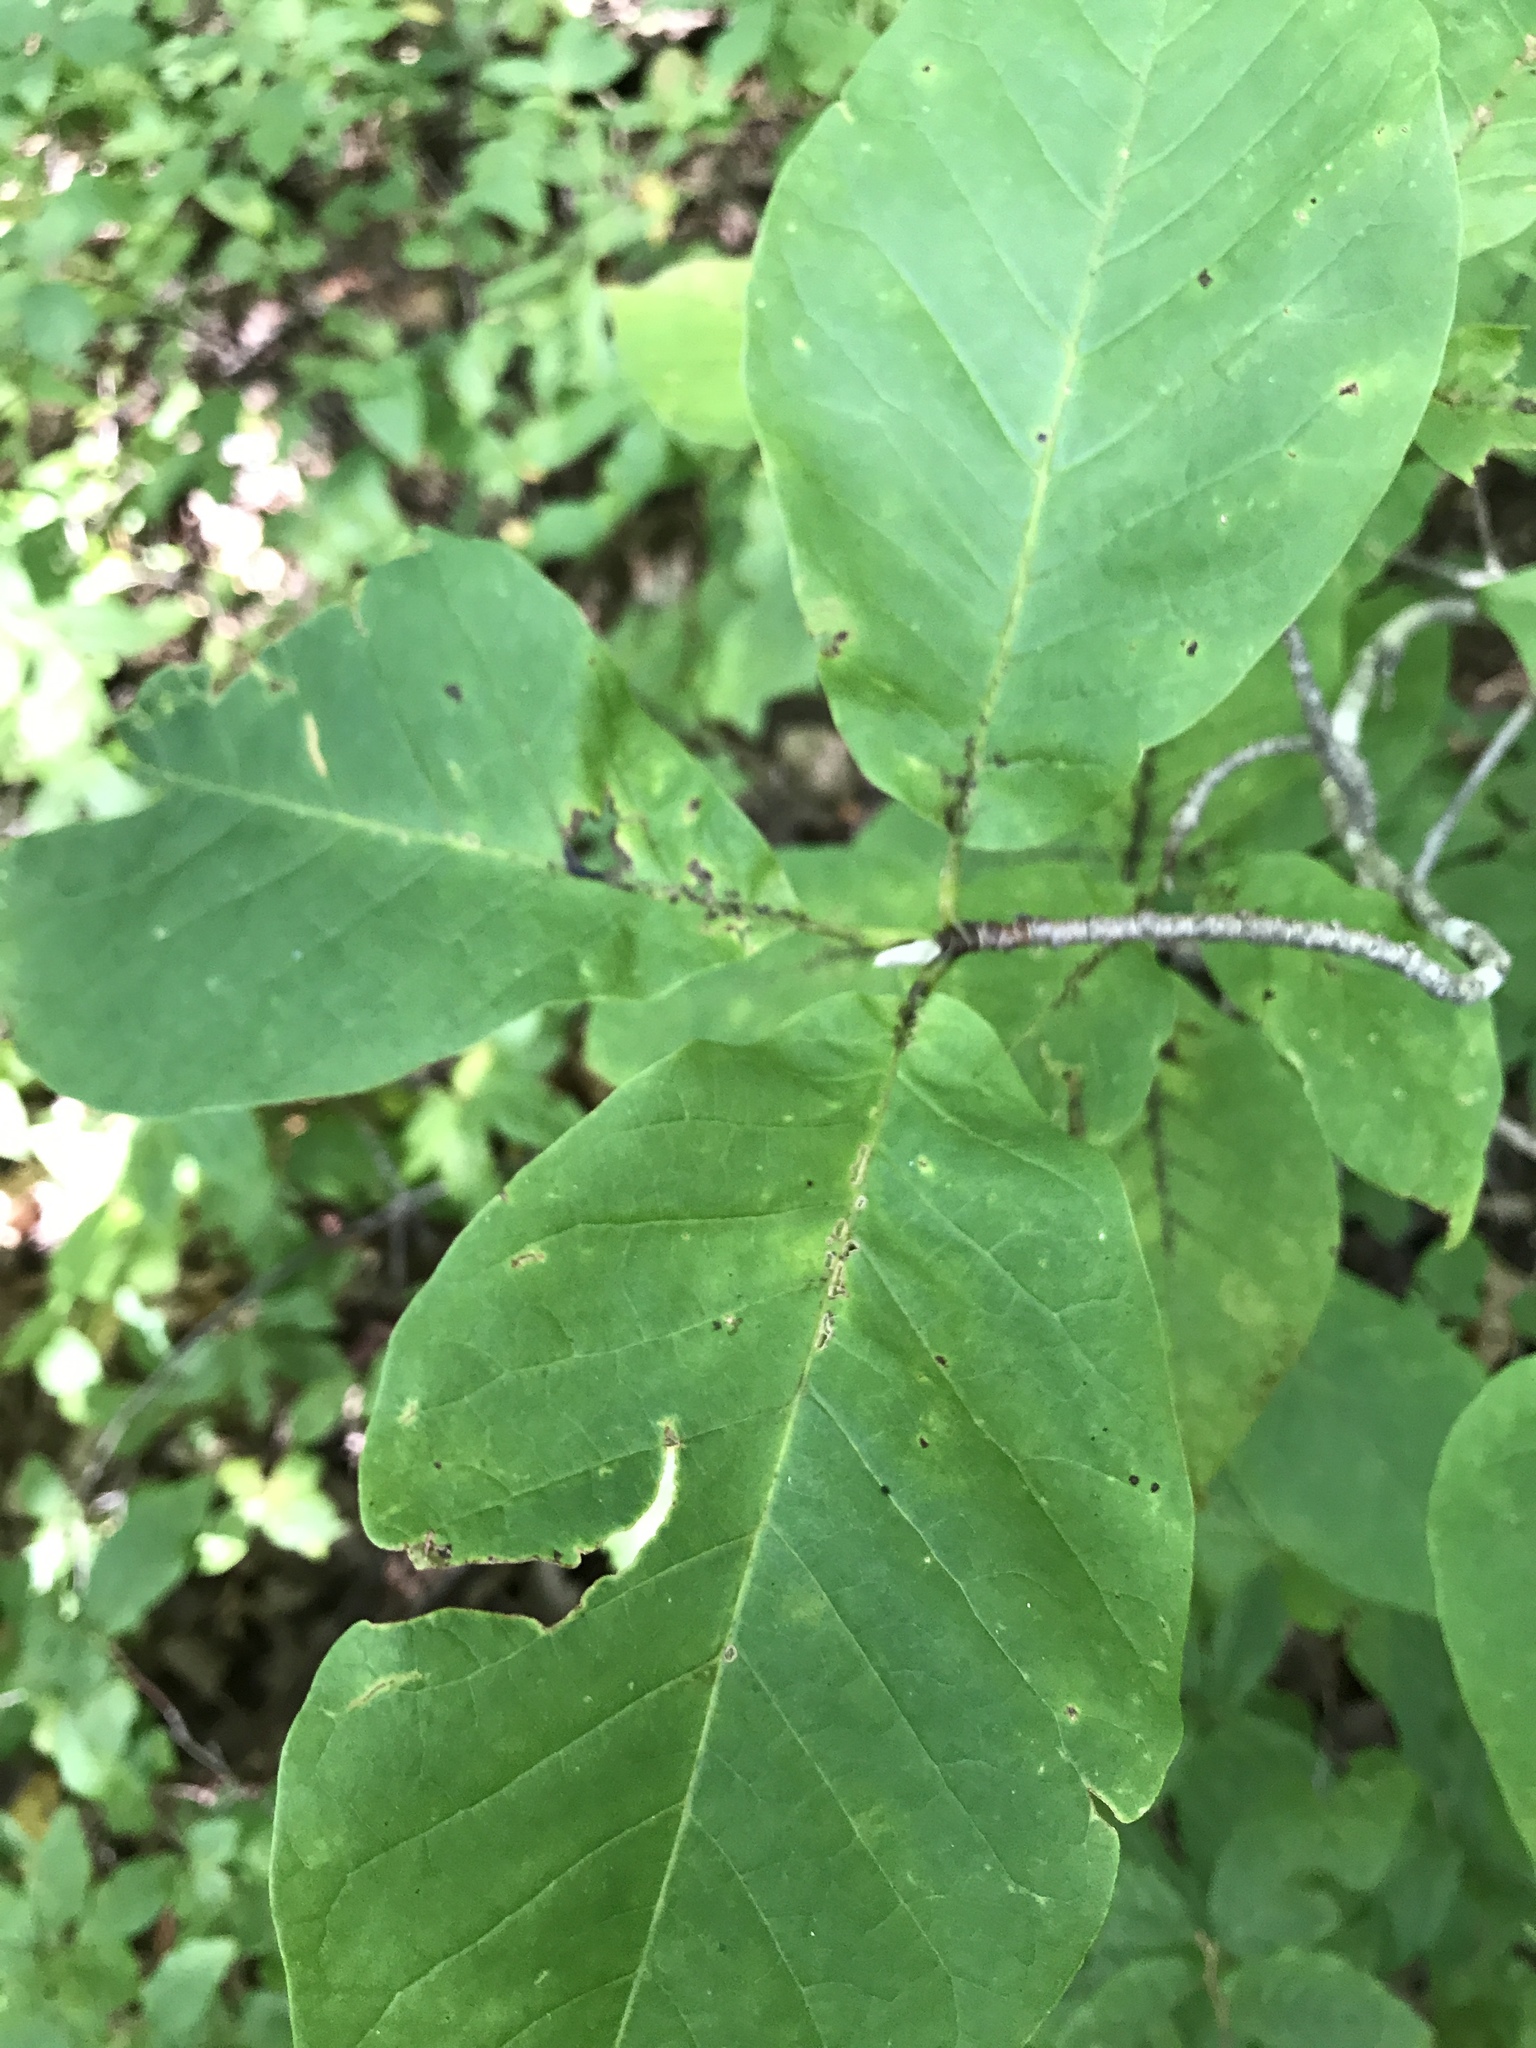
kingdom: Plantae
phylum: Tracheophyta
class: Magnoliopsida
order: Magnoliales
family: Magnoliaceae
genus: Magnolia
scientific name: Magnolia acuminata
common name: Cucumber magnolia
